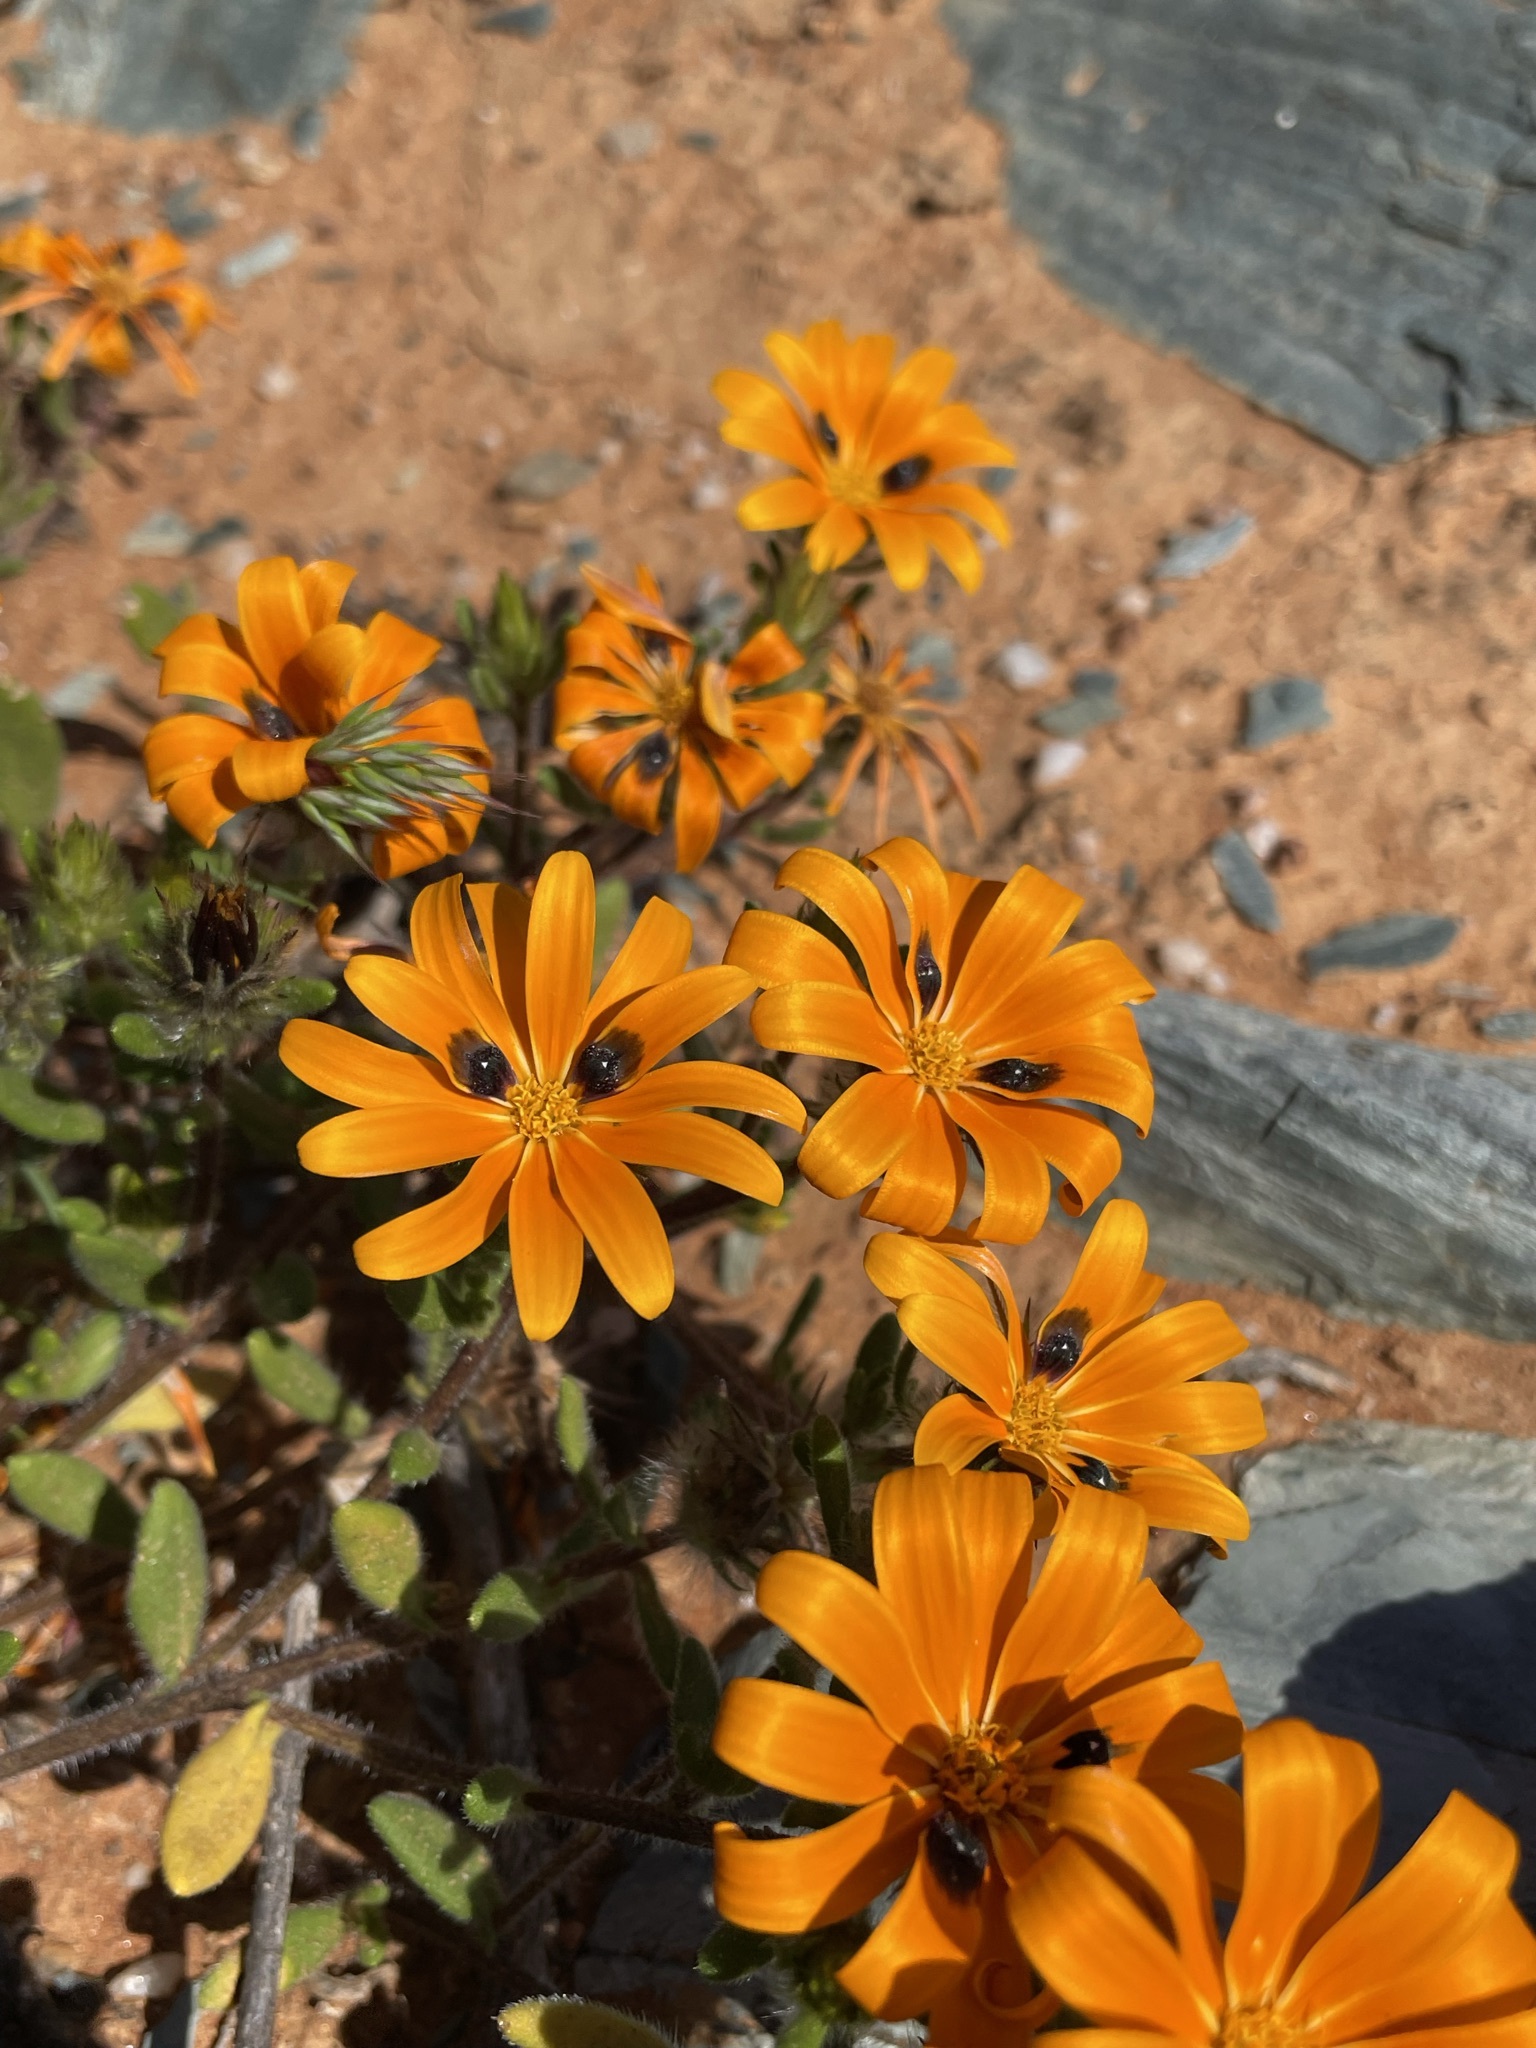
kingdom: Plantae
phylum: Tracheophyta
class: Magnoliopsida
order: Asterales
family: Asteraceae
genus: Gorteria
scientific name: Gorteria diffusa
